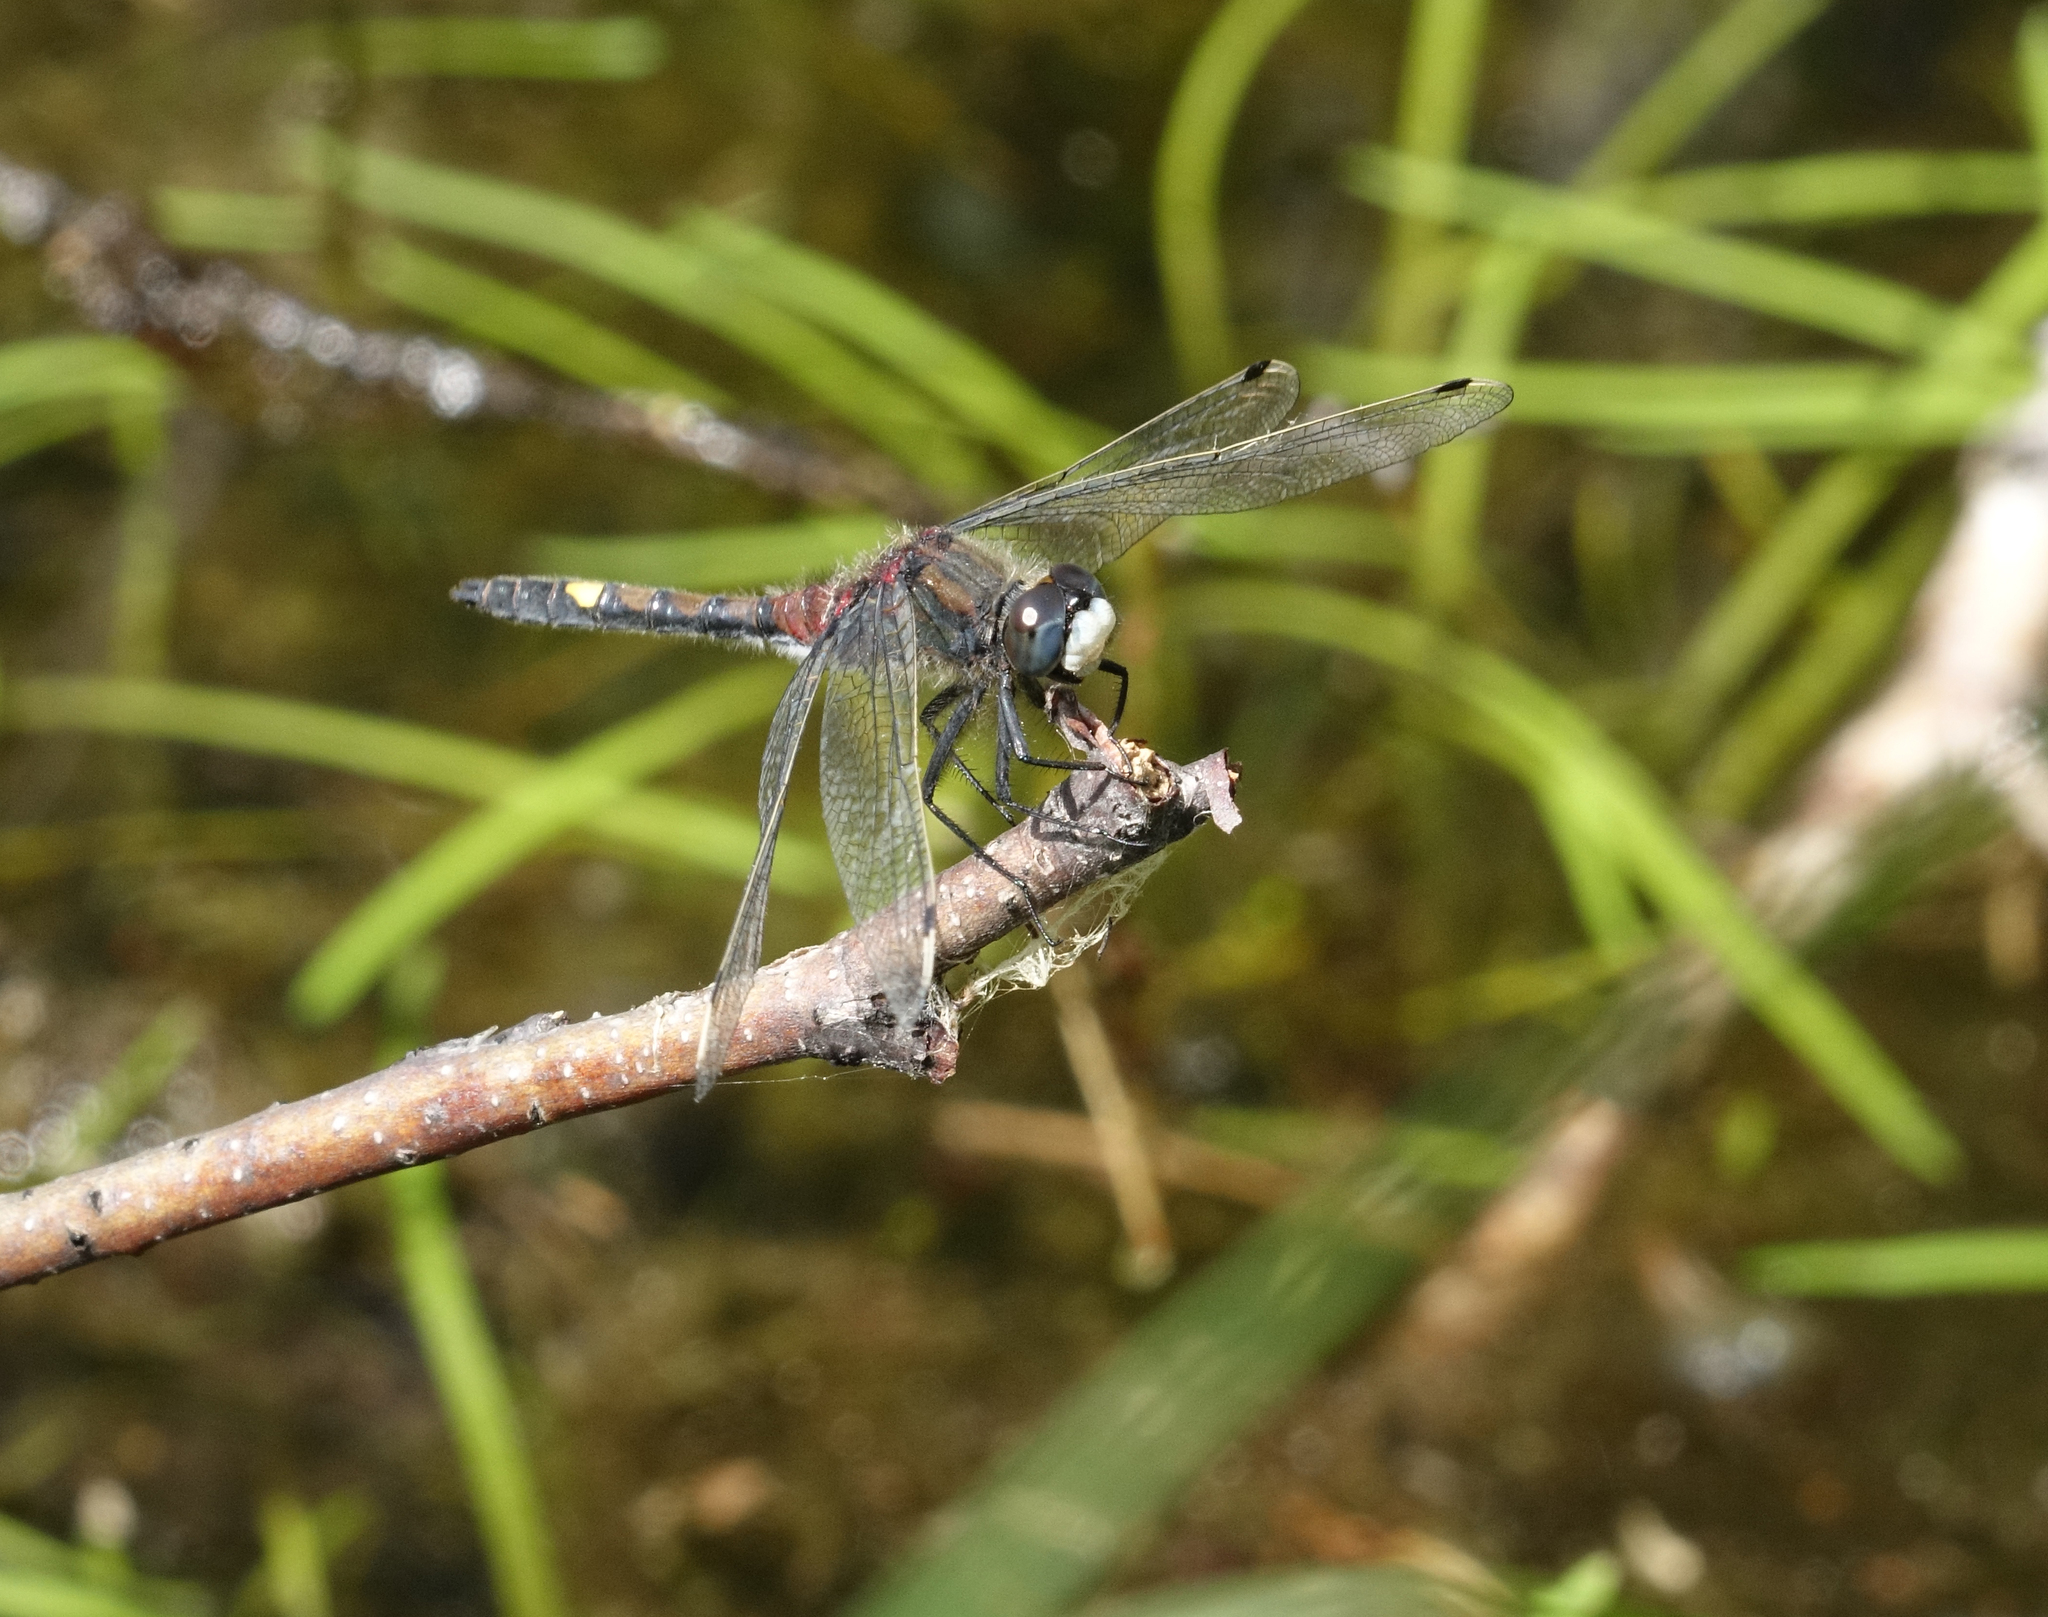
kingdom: Animalia
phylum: Arthropoda
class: Insecta
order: Odonata
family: Libellulidae
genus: Leucorrhinia
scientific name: Leucorrhinia pectoralis
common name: Yellow-spotted whiteface
